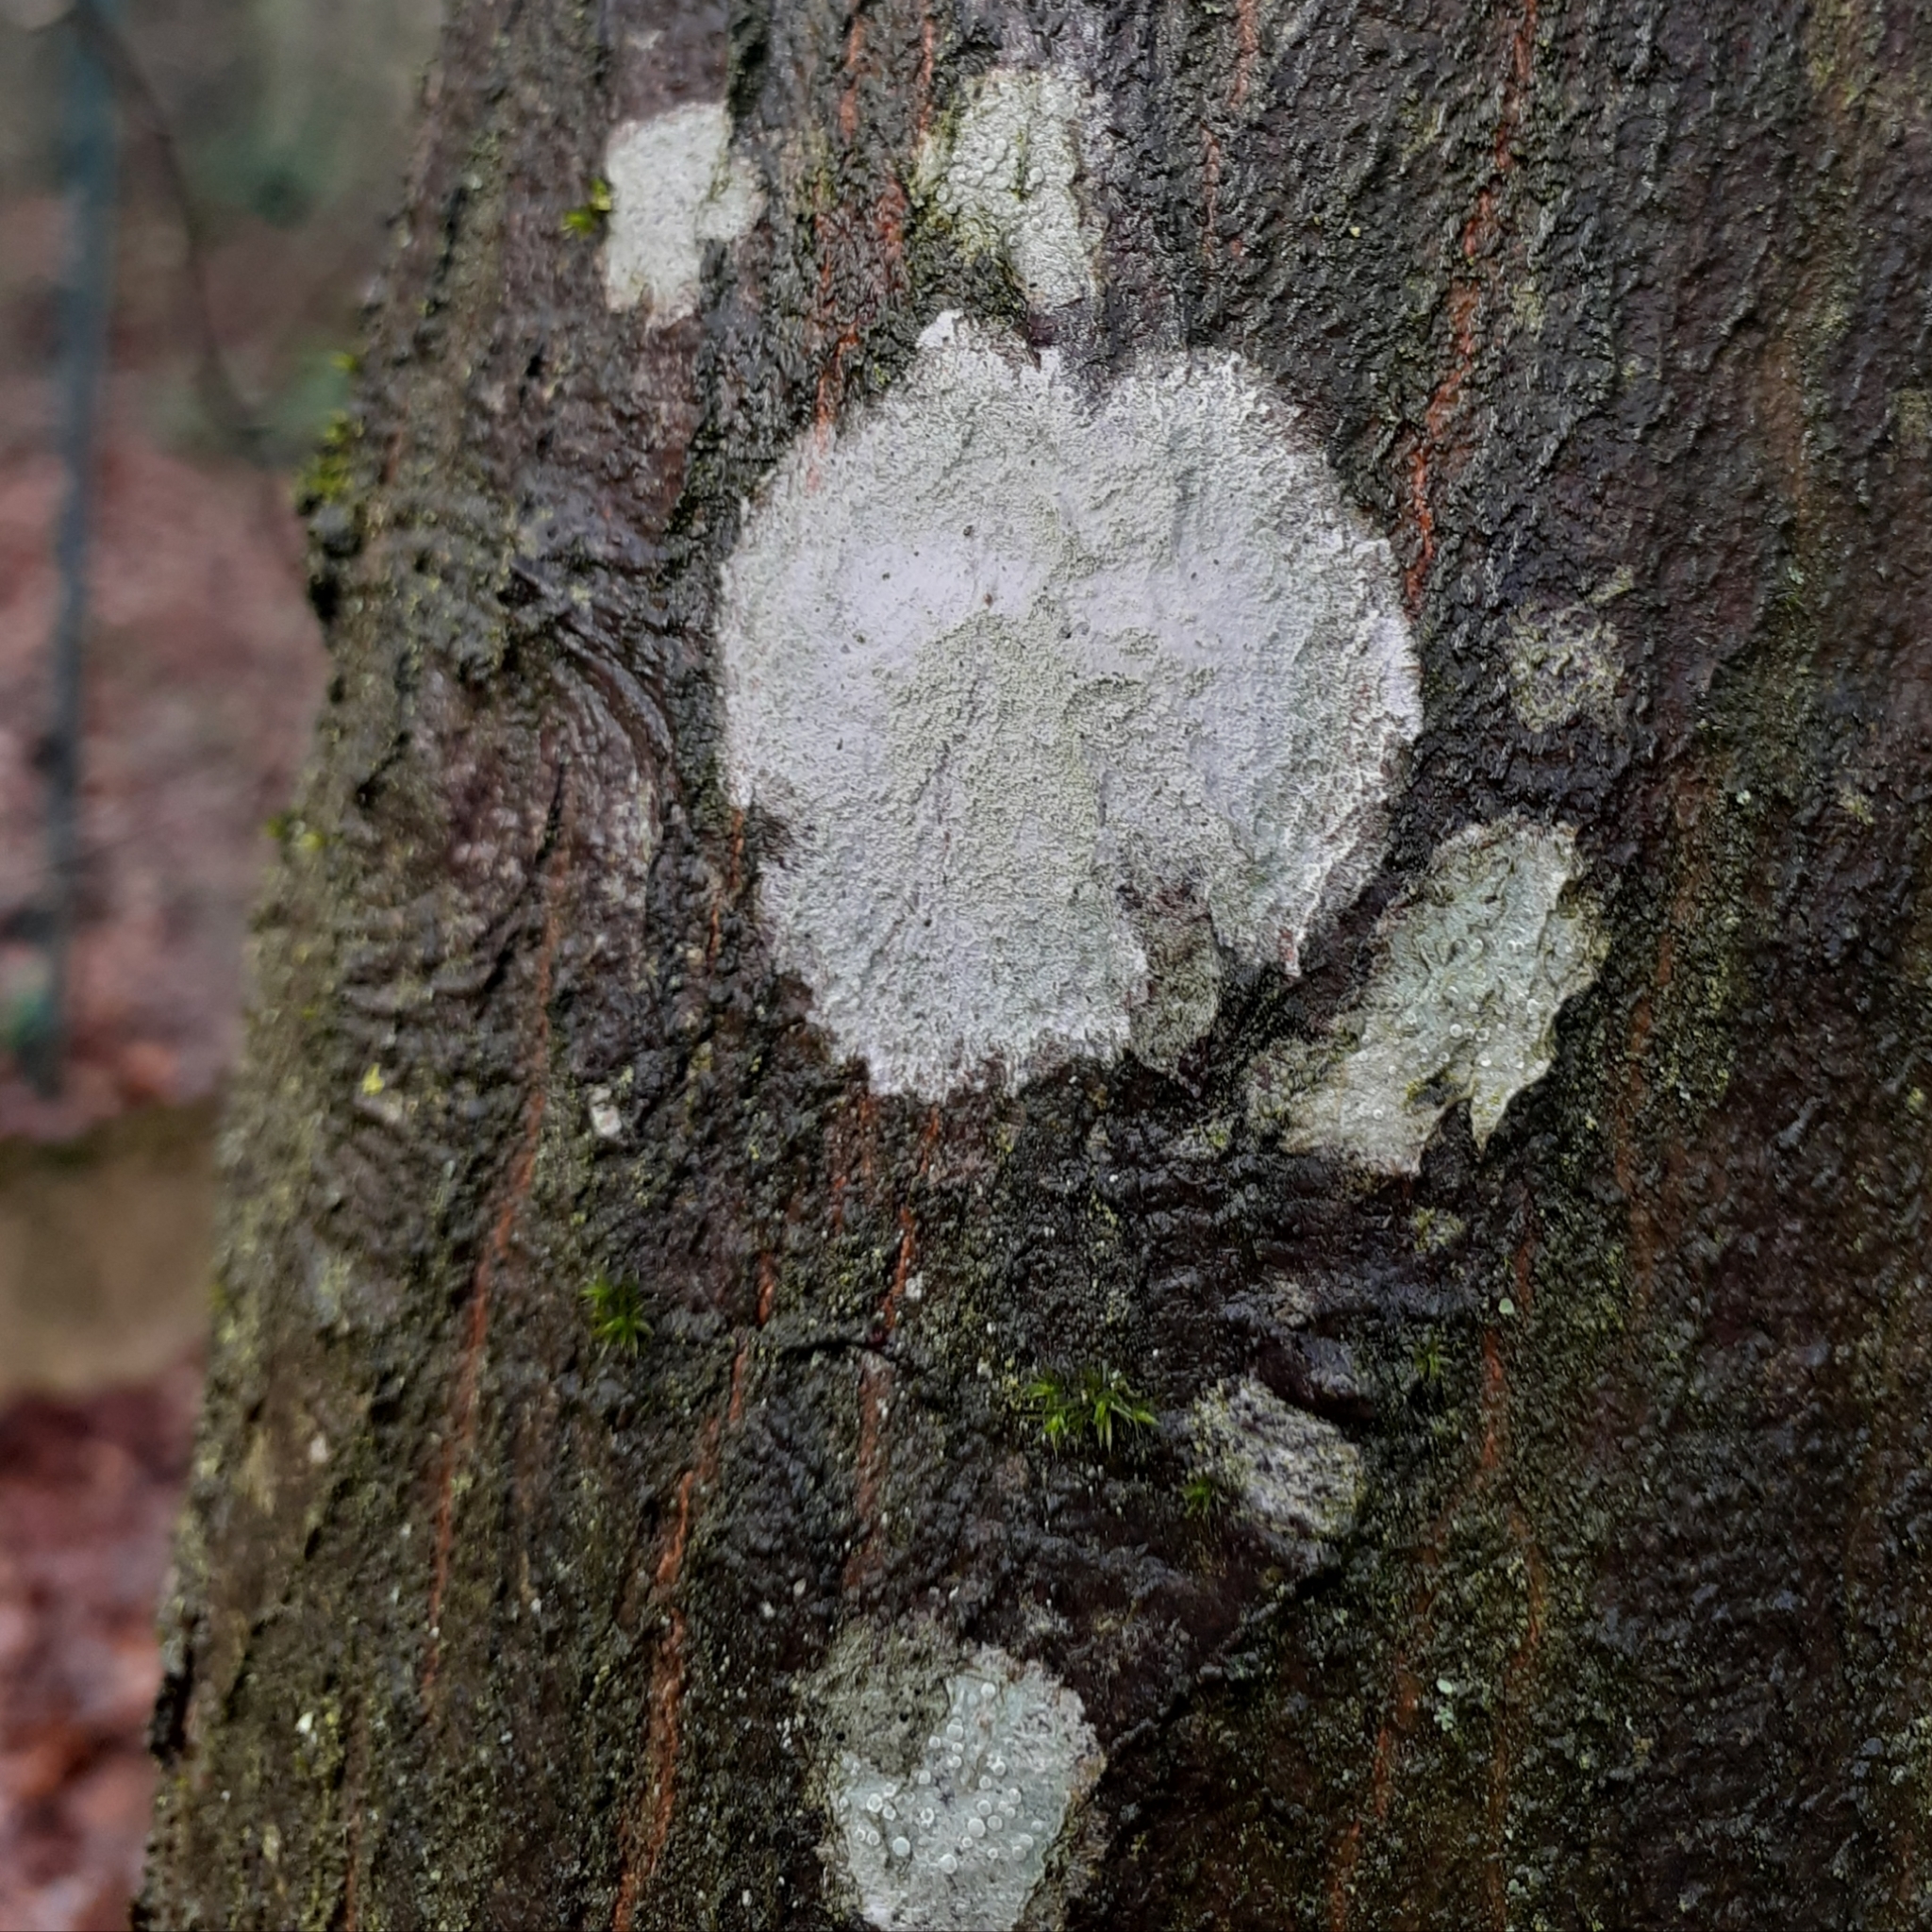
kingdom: Fungi
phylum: Ascomycota
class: Lecanoromycetes
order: Ostropales
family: Phlyctidaceae
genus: Phlyctis
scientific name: Phlyctis argena
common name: Whitewash lichen
